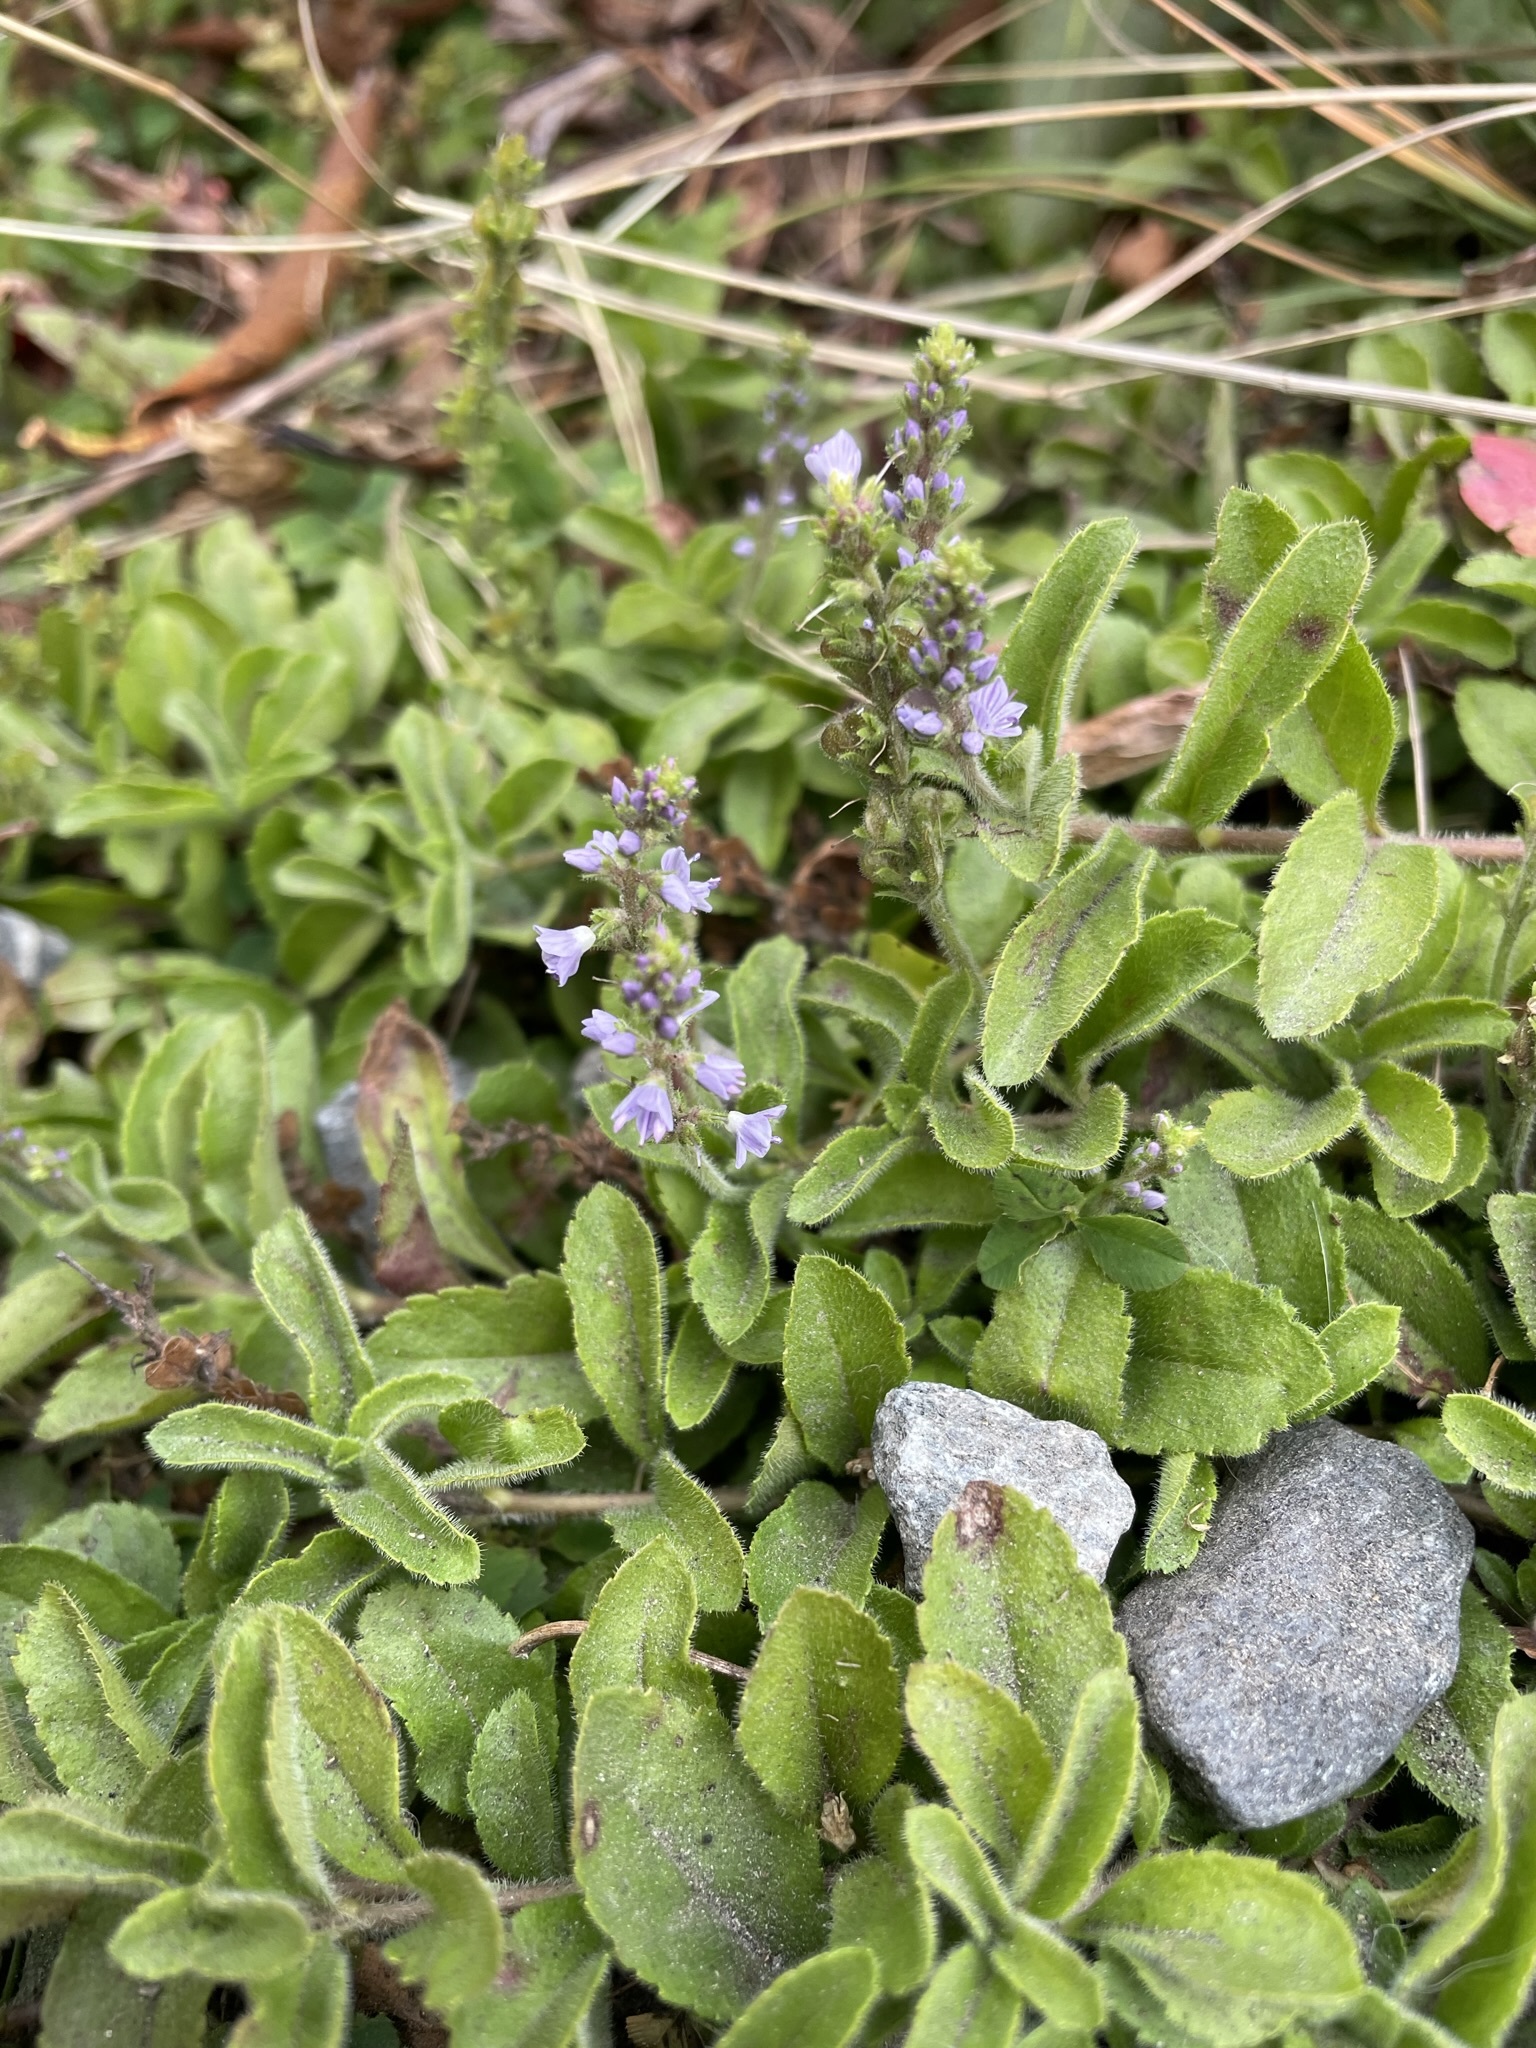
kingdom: Plantae
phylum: Tracheophyta
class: Magnoliopsida
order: Lamiales
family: Plantaginaceae
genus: Veronica
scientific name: Veronica officinalis
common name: Common speedwell
